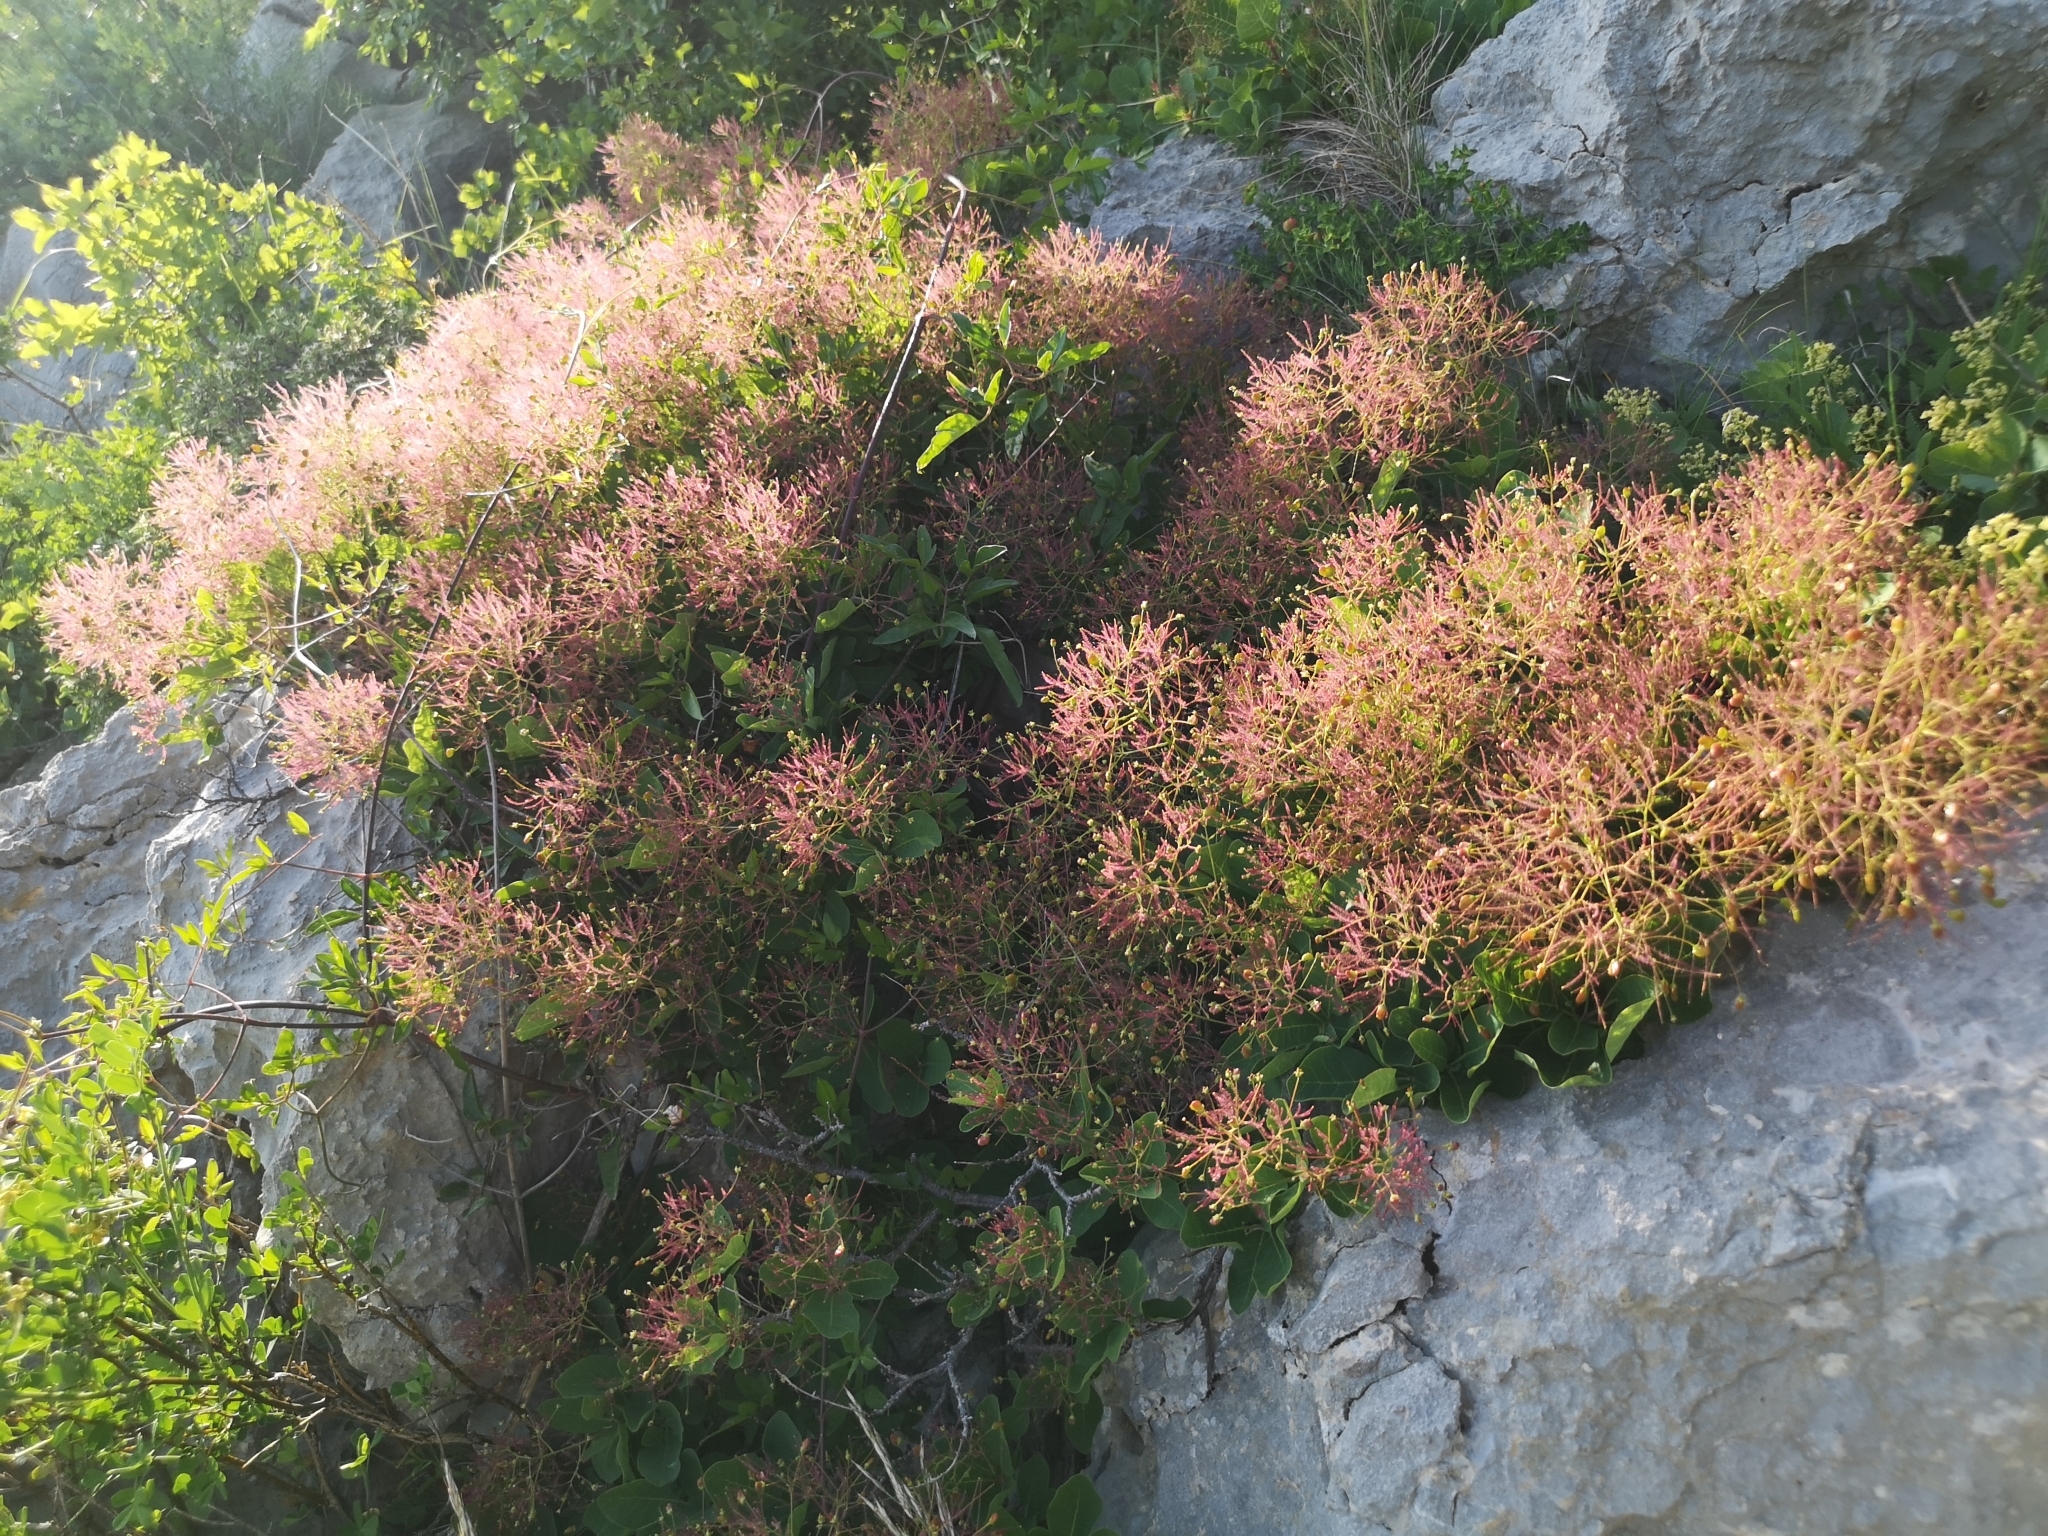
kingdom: Plantae
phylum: Tracheophyta
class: Magnoliopsida
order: Sapindales
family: Anacardiaceae
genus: Cotinus
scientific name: Cotinus coggygria
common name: Smoke-tree
